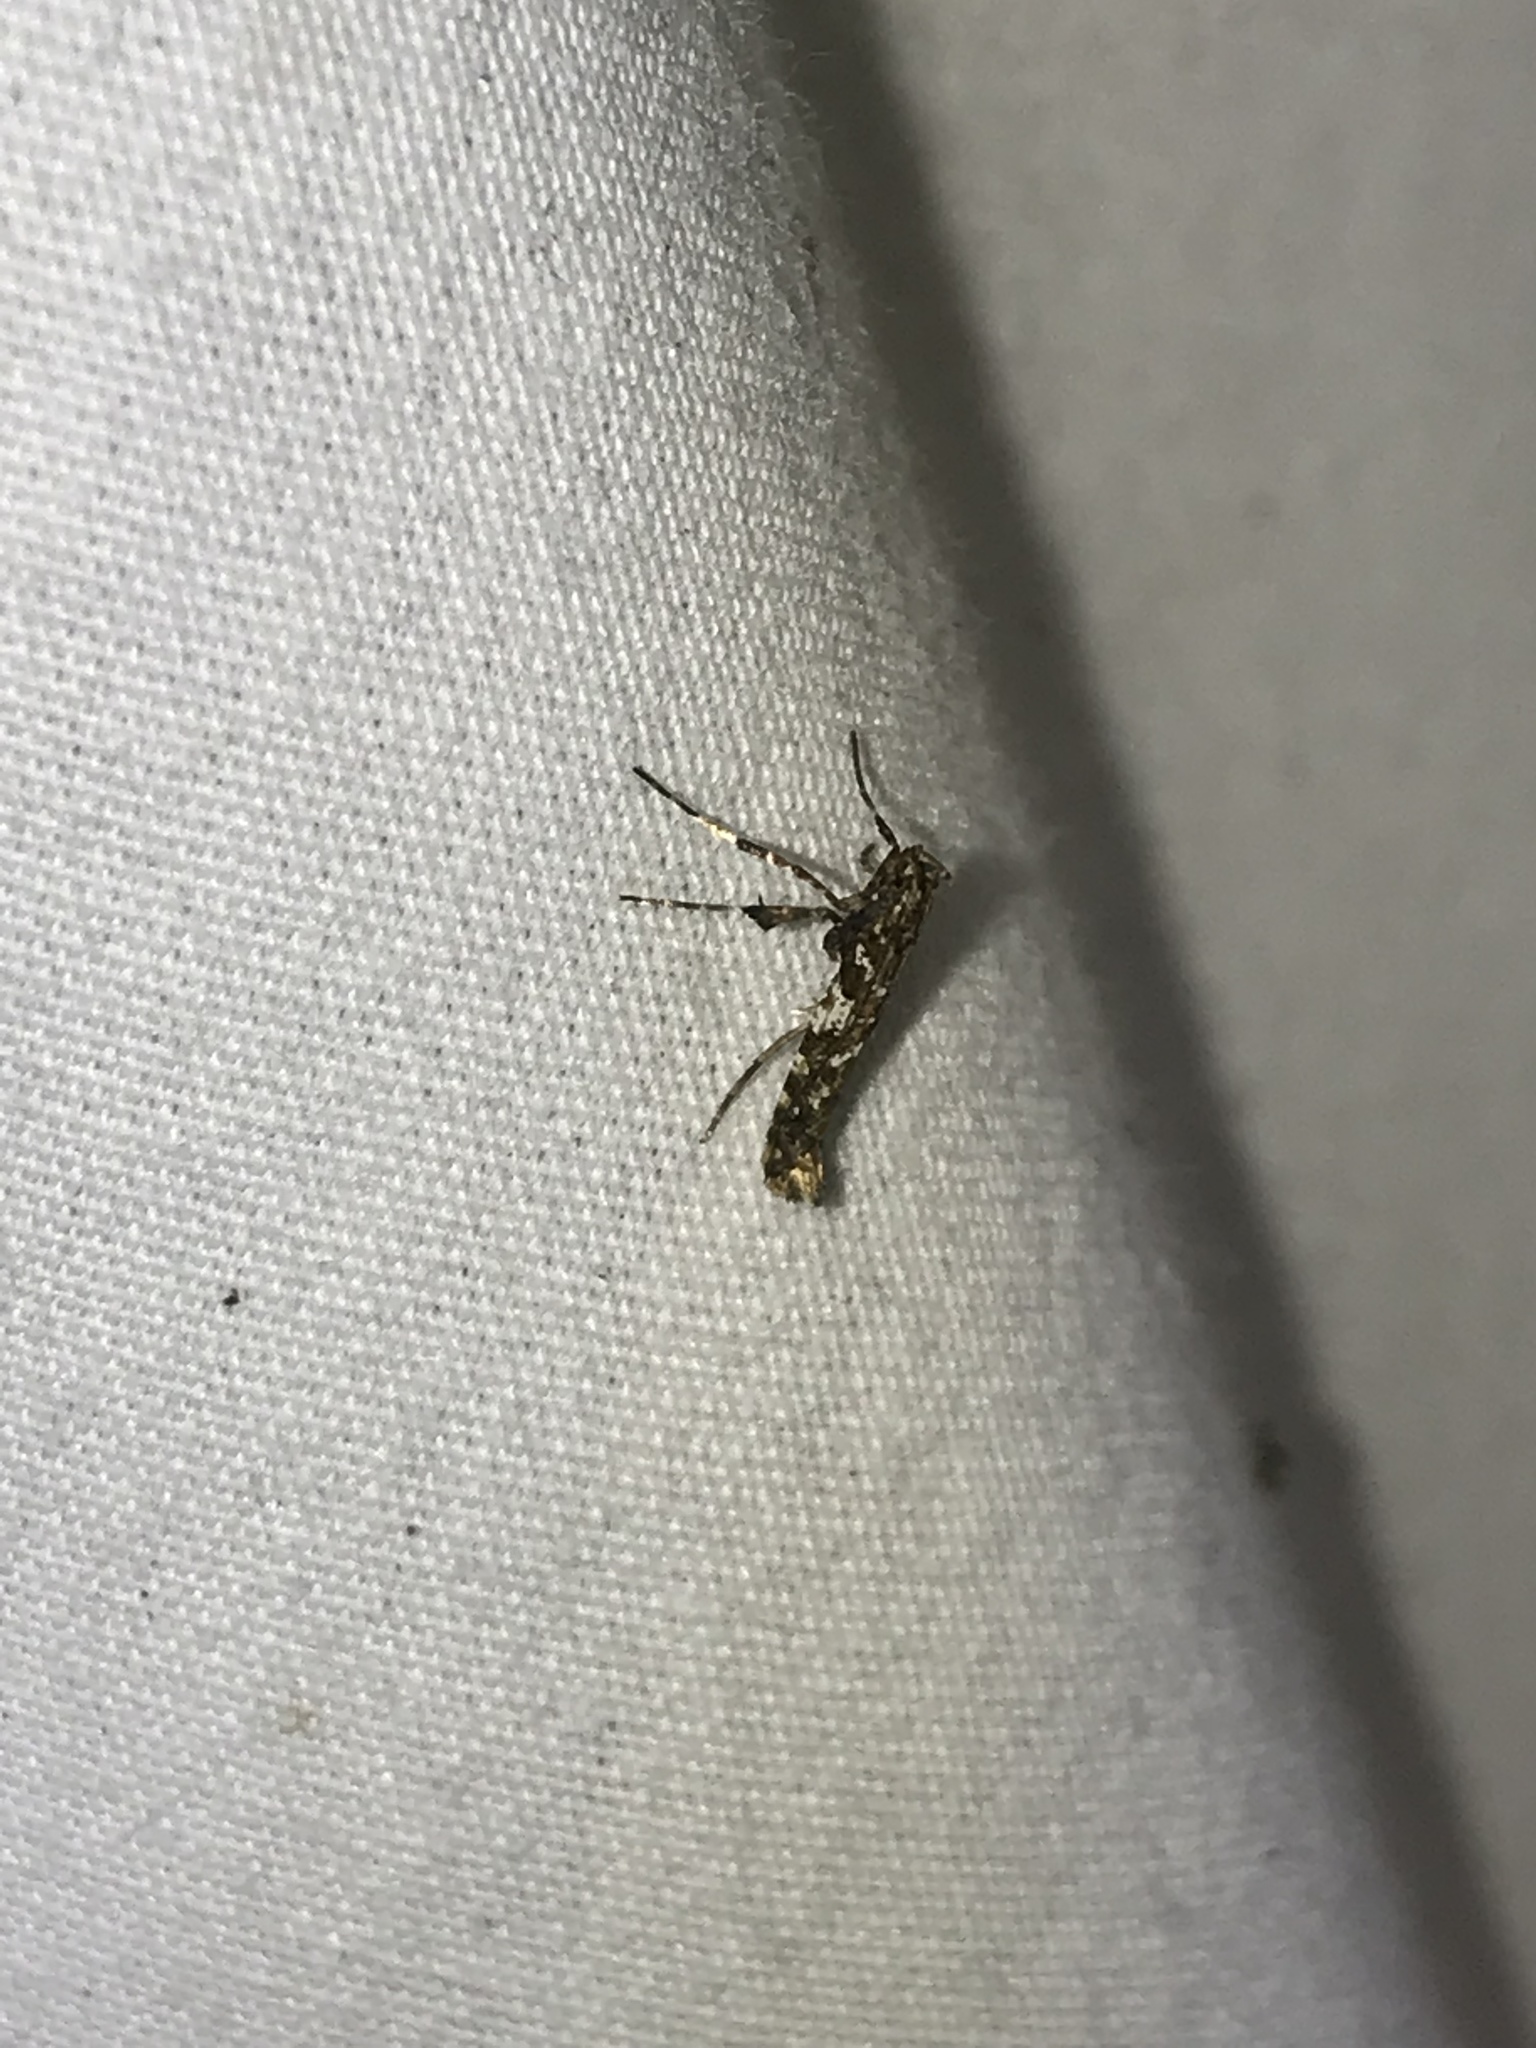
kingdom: Animalia
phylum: Arthropoda
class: Insecta
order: Lepidoptera
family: Gracillariidae
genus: Caloptilia
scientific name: Caloptilia serotinella
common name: Cherry leafroller moth
